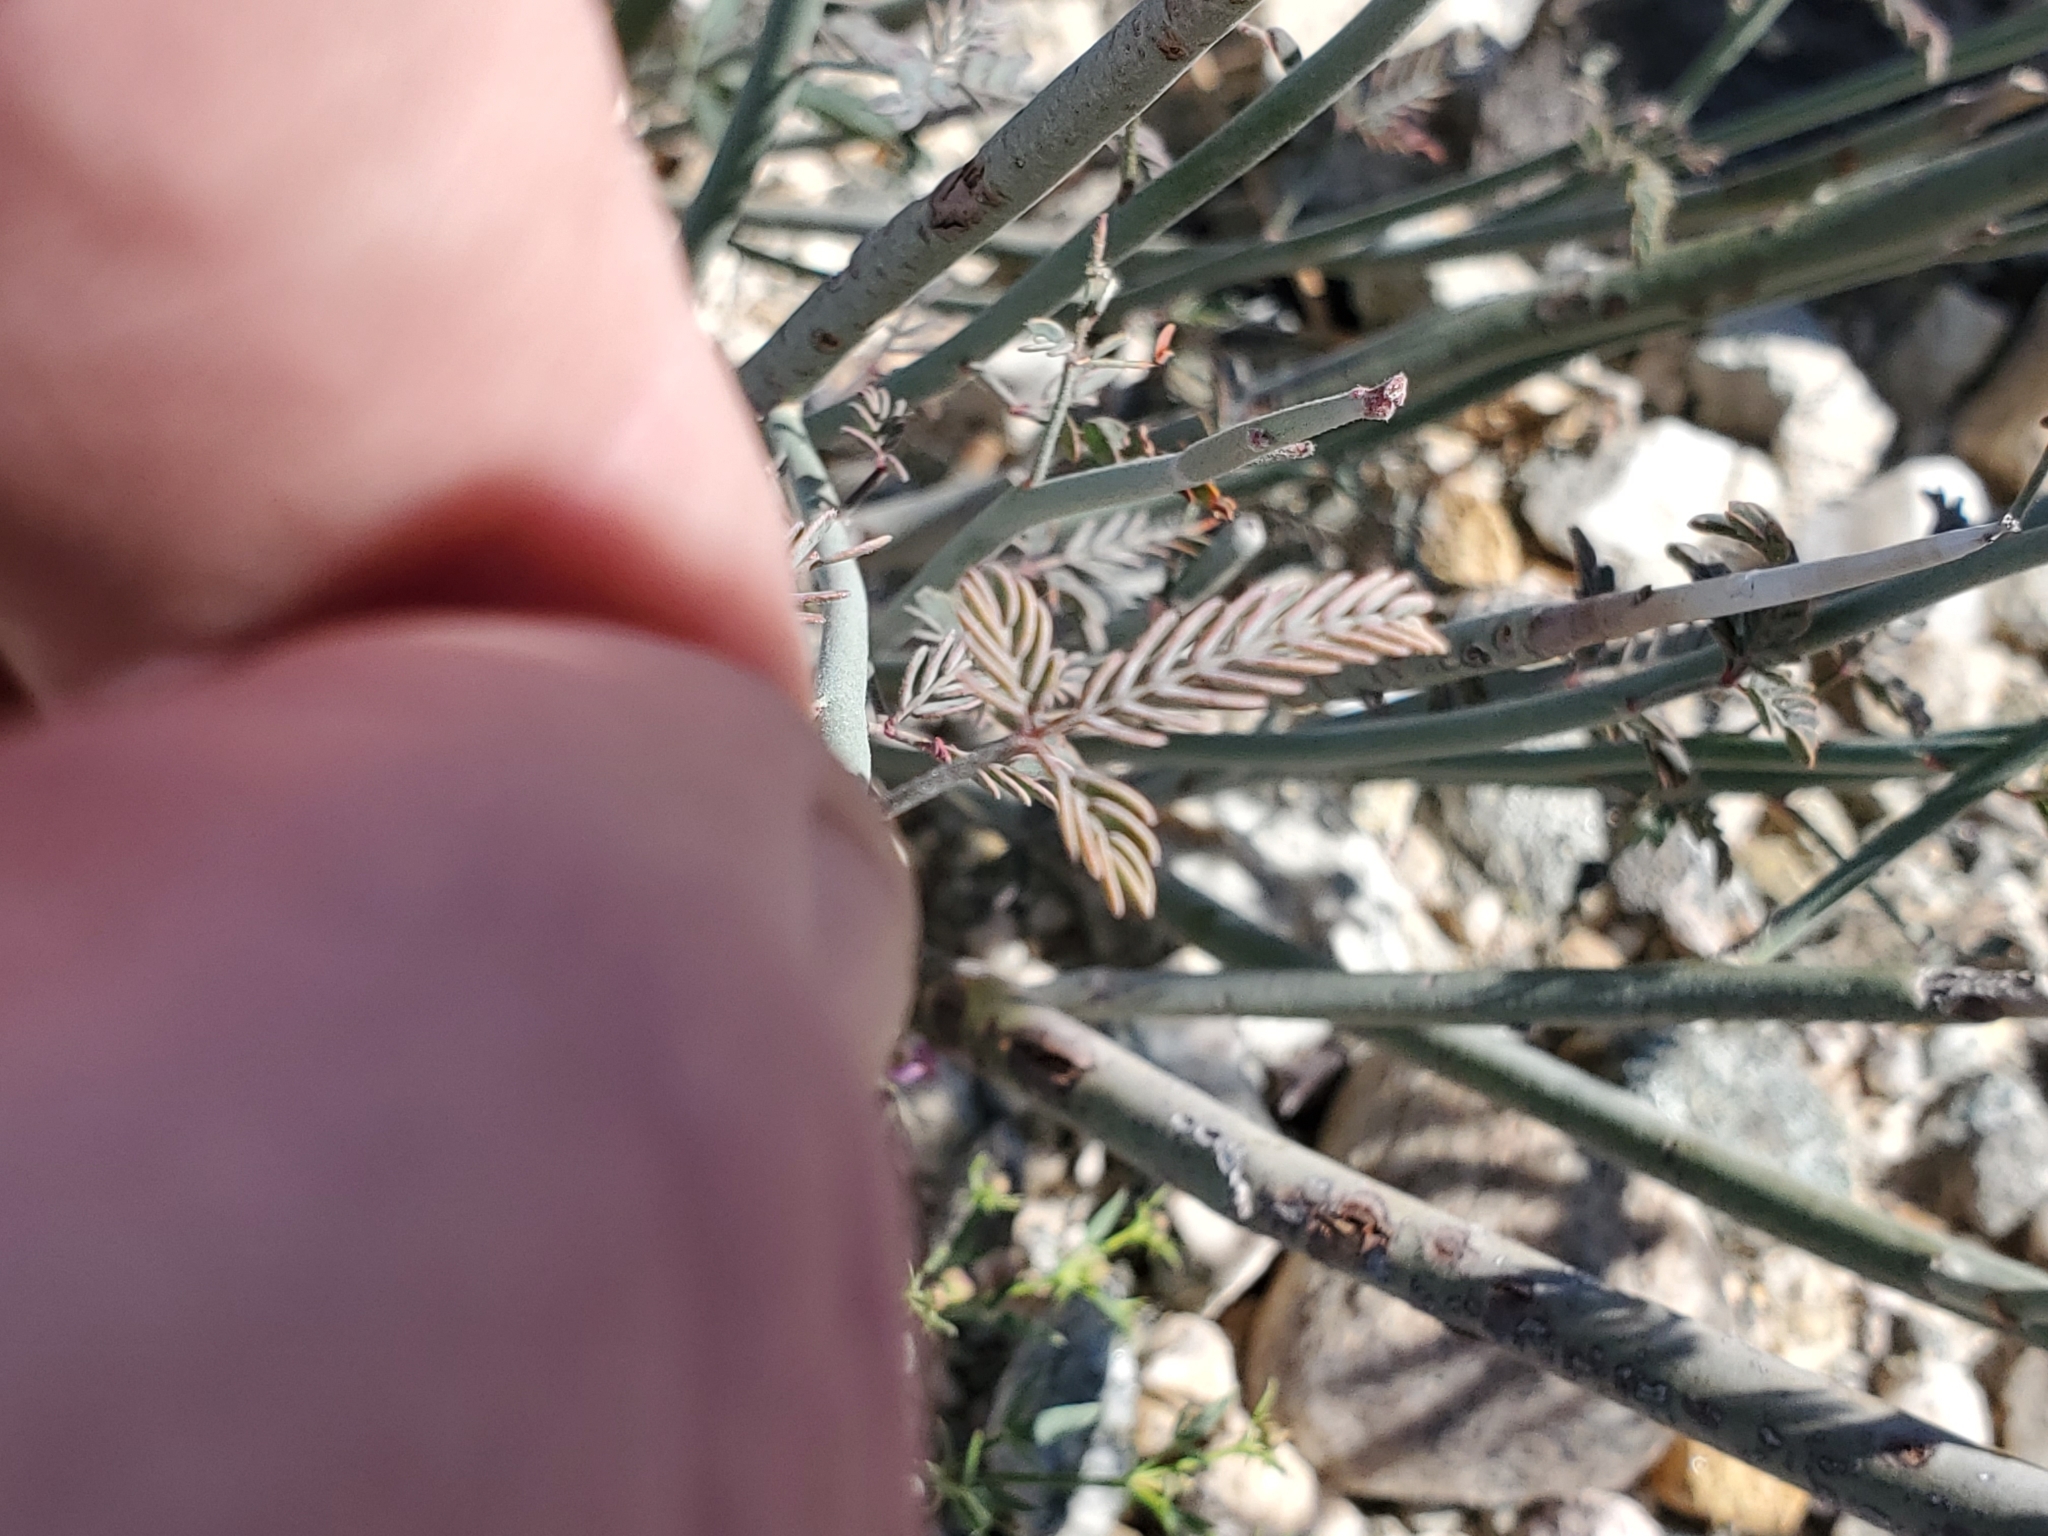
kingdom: Plantae
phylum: Tracheophyta
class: Magnoliopsida
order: Fabales
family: Fabaceae
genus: Hoffmannseggia
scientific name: Hoffmannseggia microphylla
